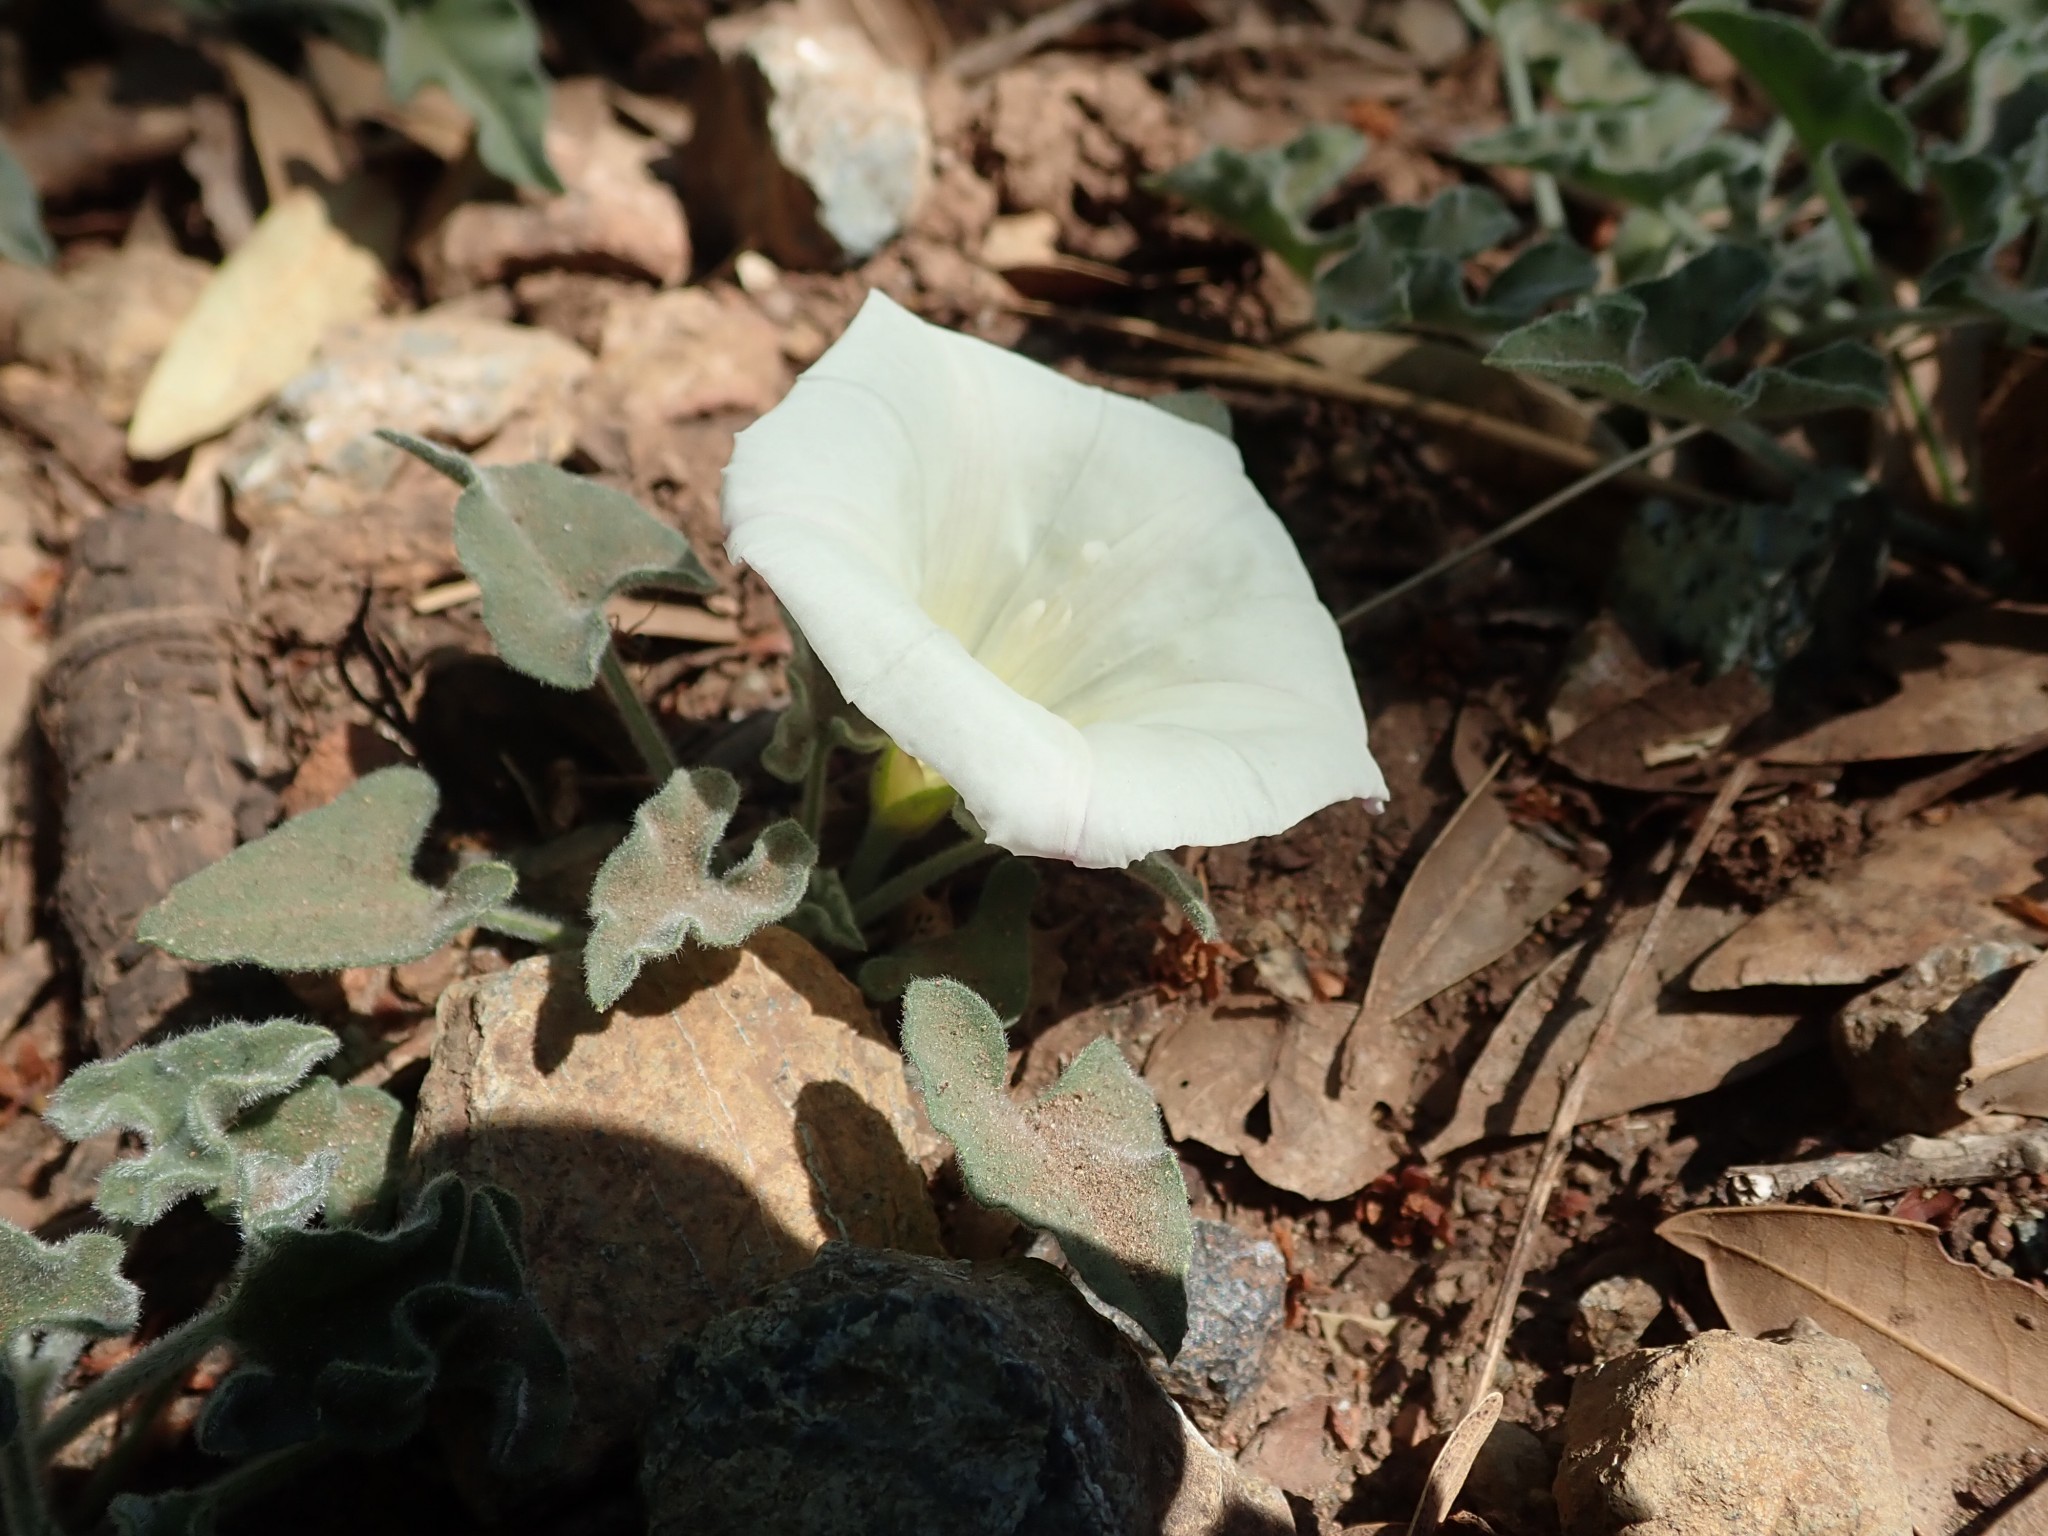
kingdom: Plantae
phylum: Tracheophyta
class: Magnoliopsida
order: Solanales
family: Convolvulaceae
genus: Calystegia
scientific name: Calystegia collina
